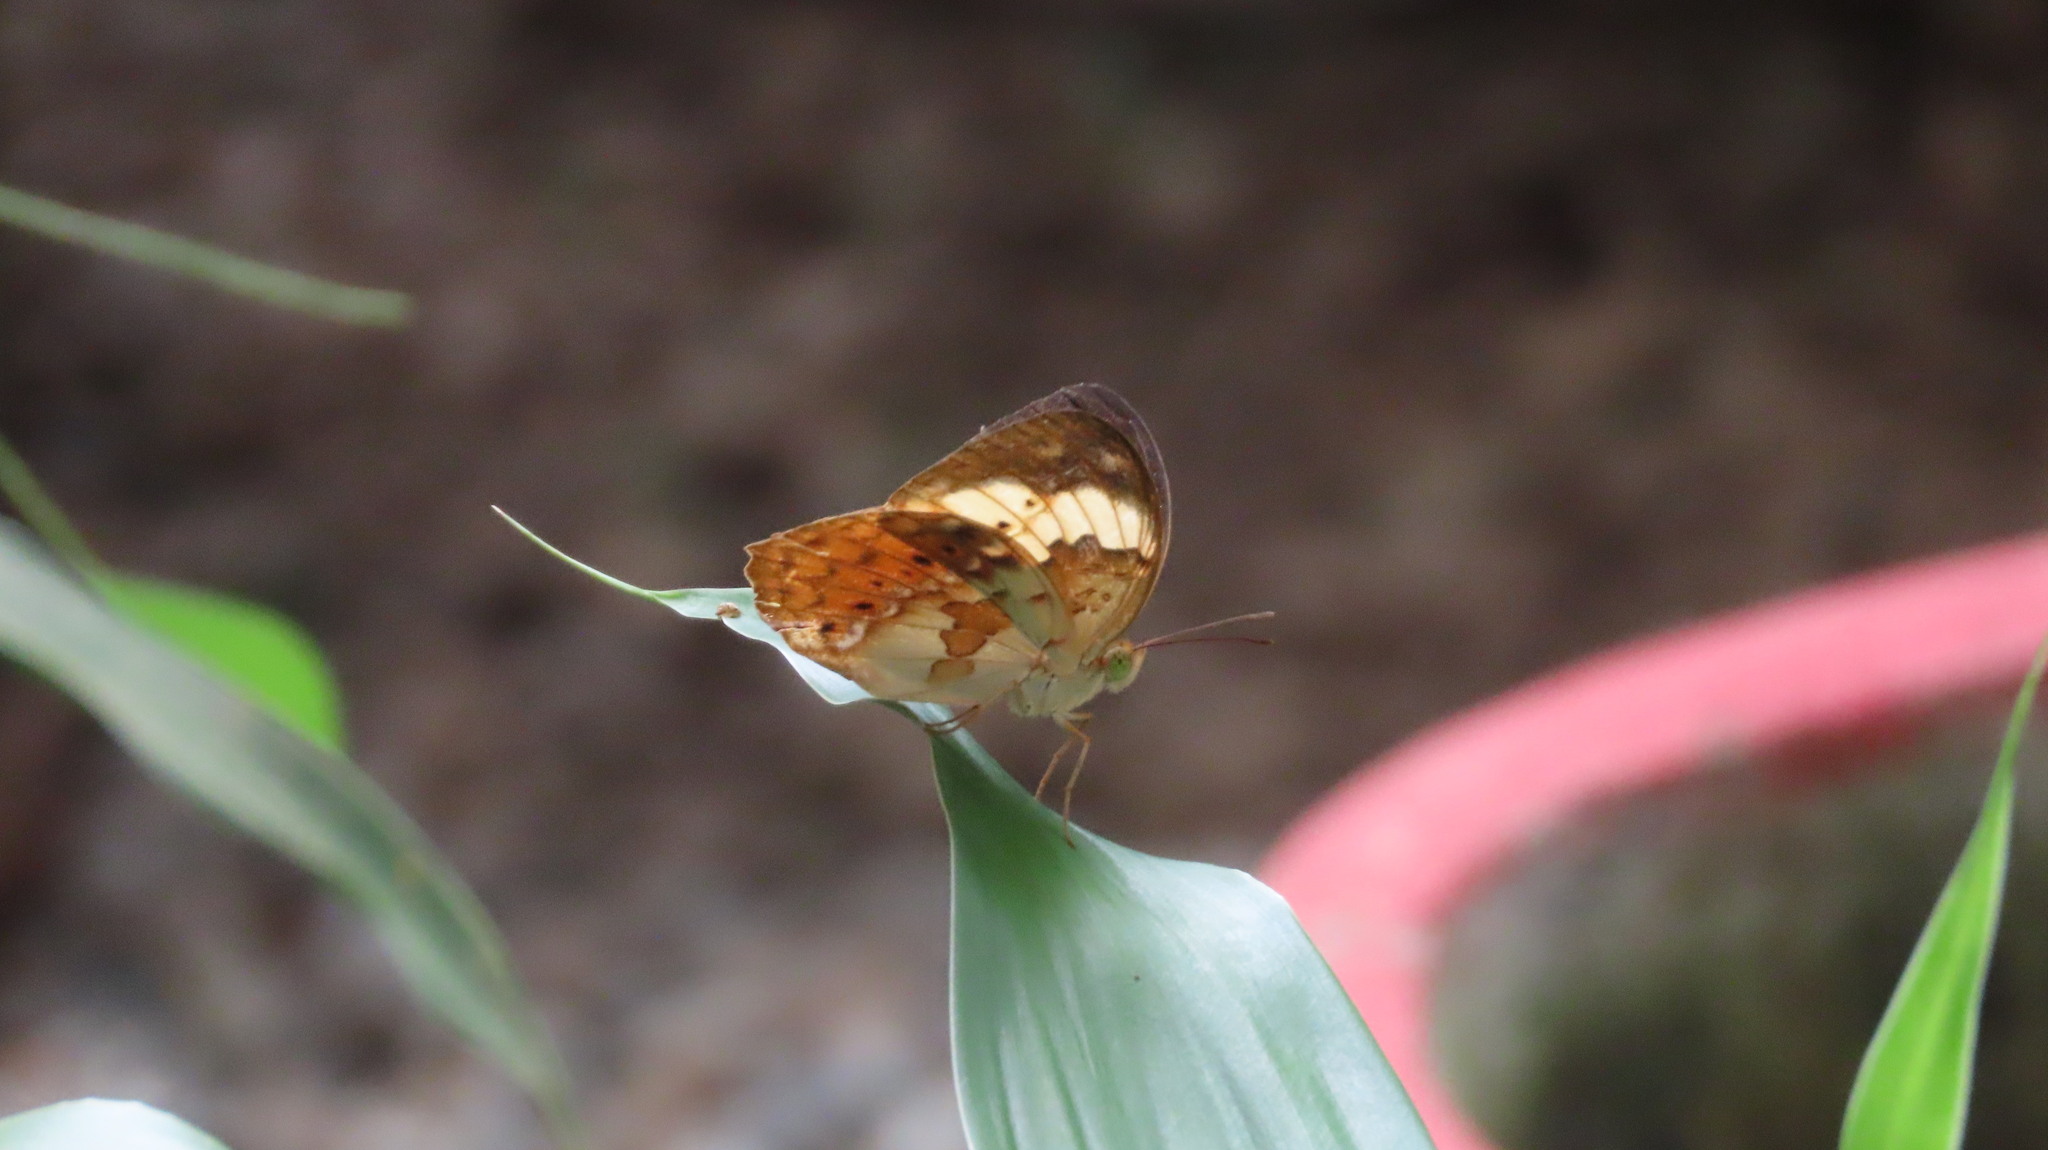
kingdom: Animalia
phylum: Arthropoda
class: Insecta
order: Lepidoptera
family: Nymphalidae
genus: Cupha
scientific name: Cupha erymanthis
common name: Rustic
